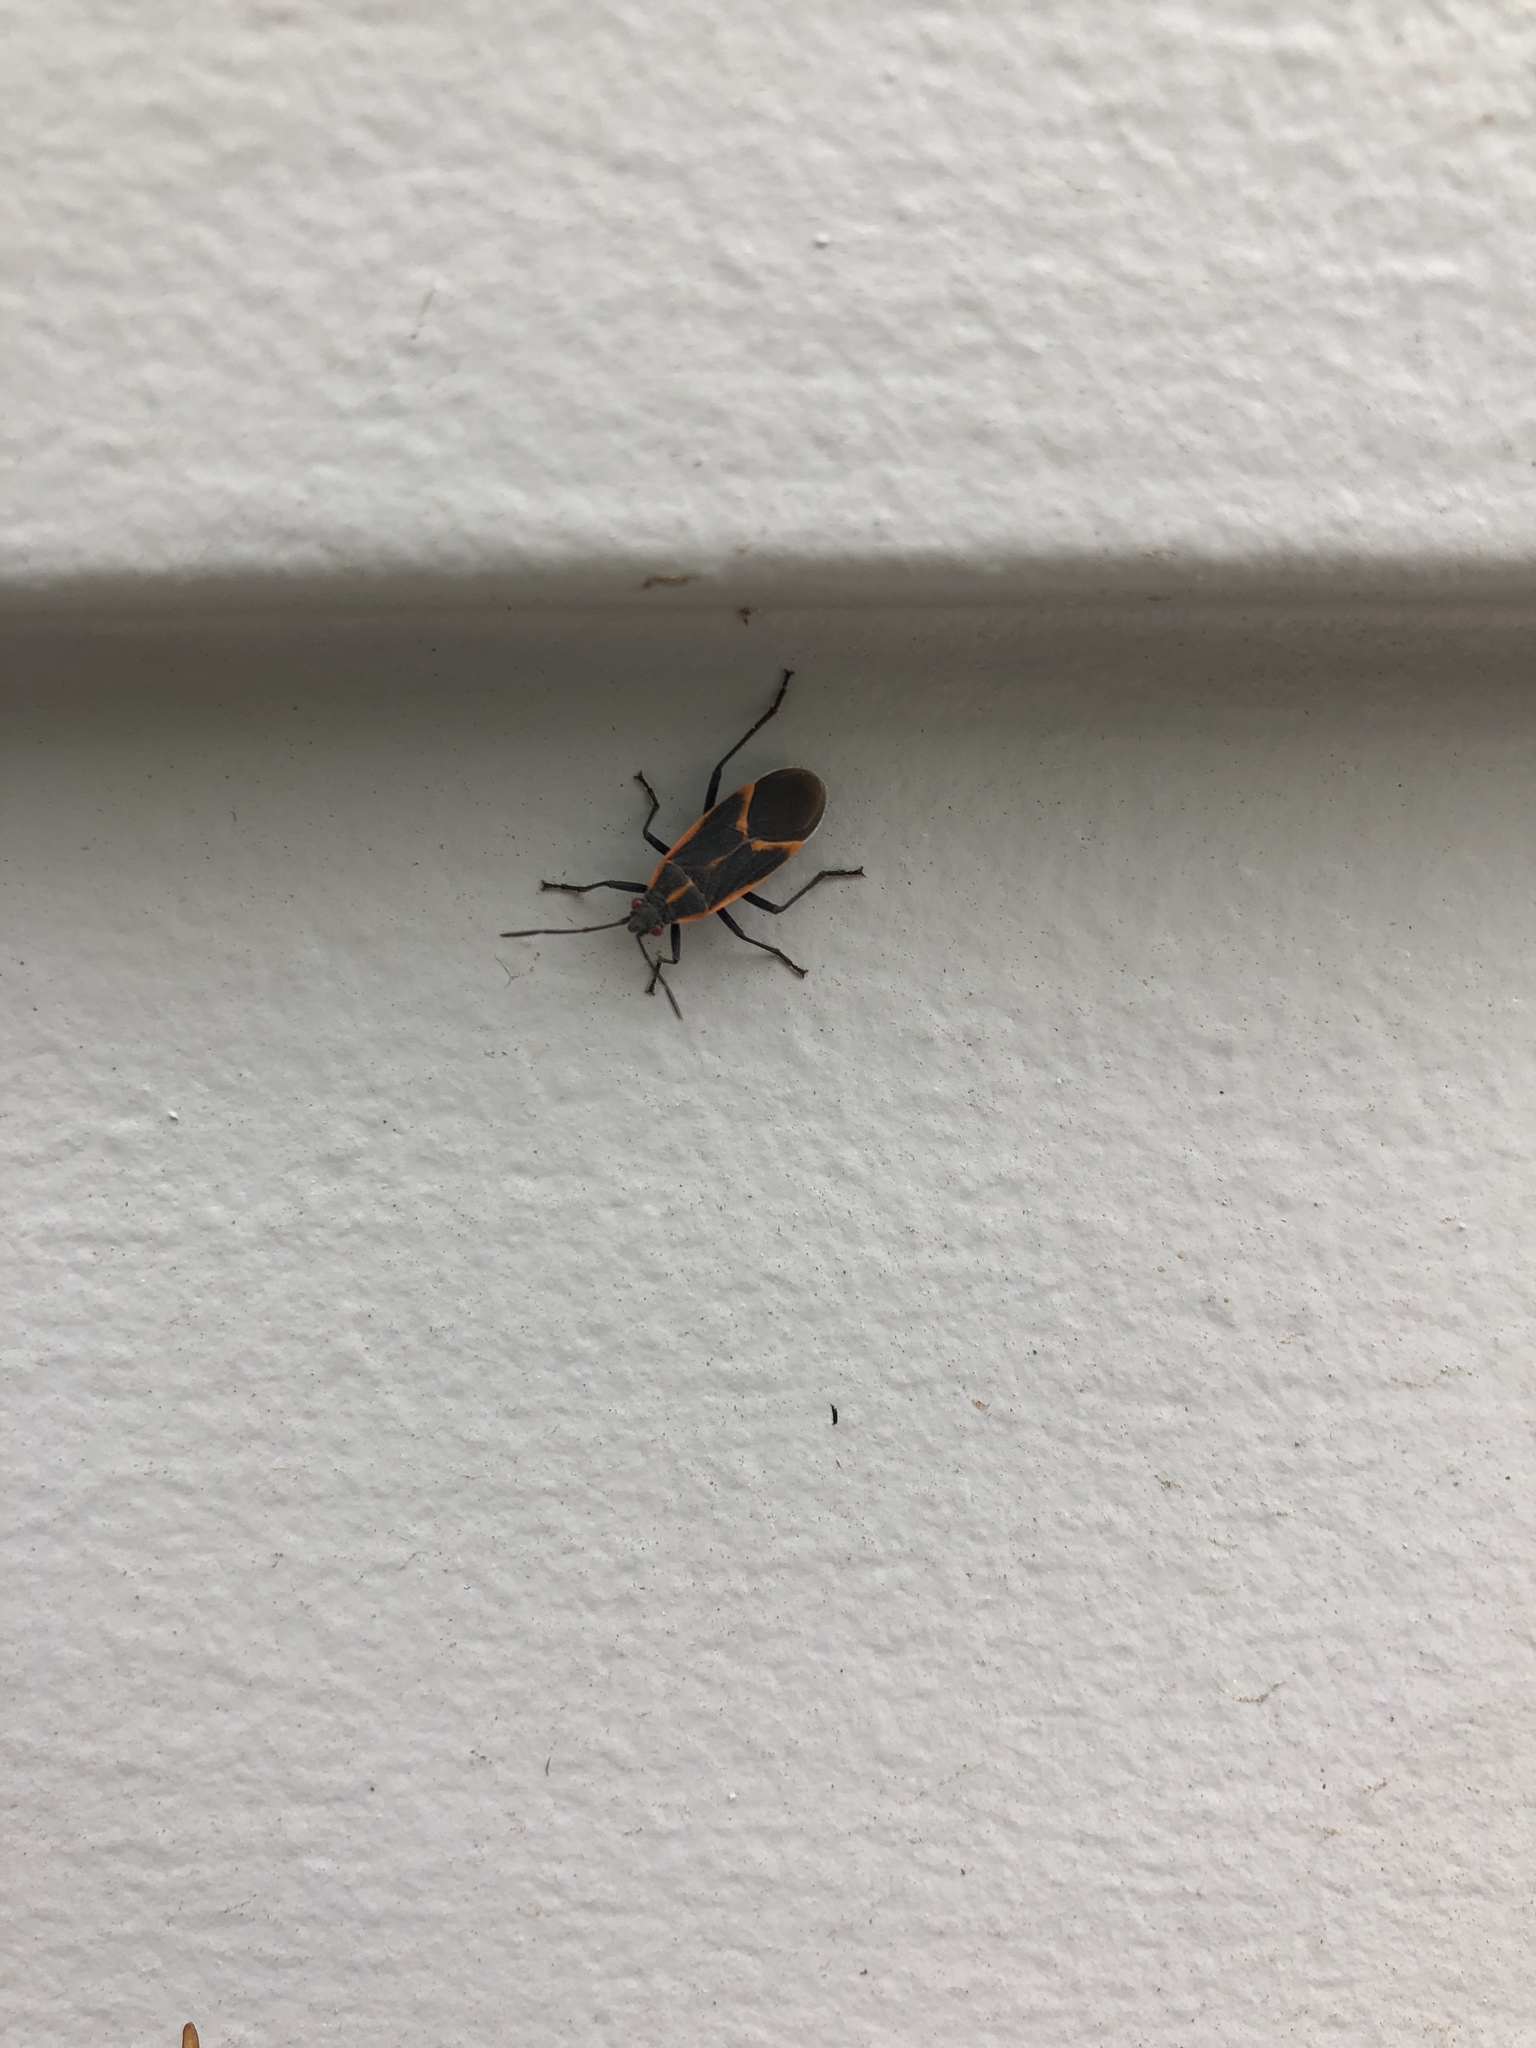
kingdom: Animalia
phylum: Arthropoda
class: Insecta
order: Hemiptera
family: Rhopalidae
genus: Boisea
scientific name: Boisea trivittata
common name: Boxelder bug
